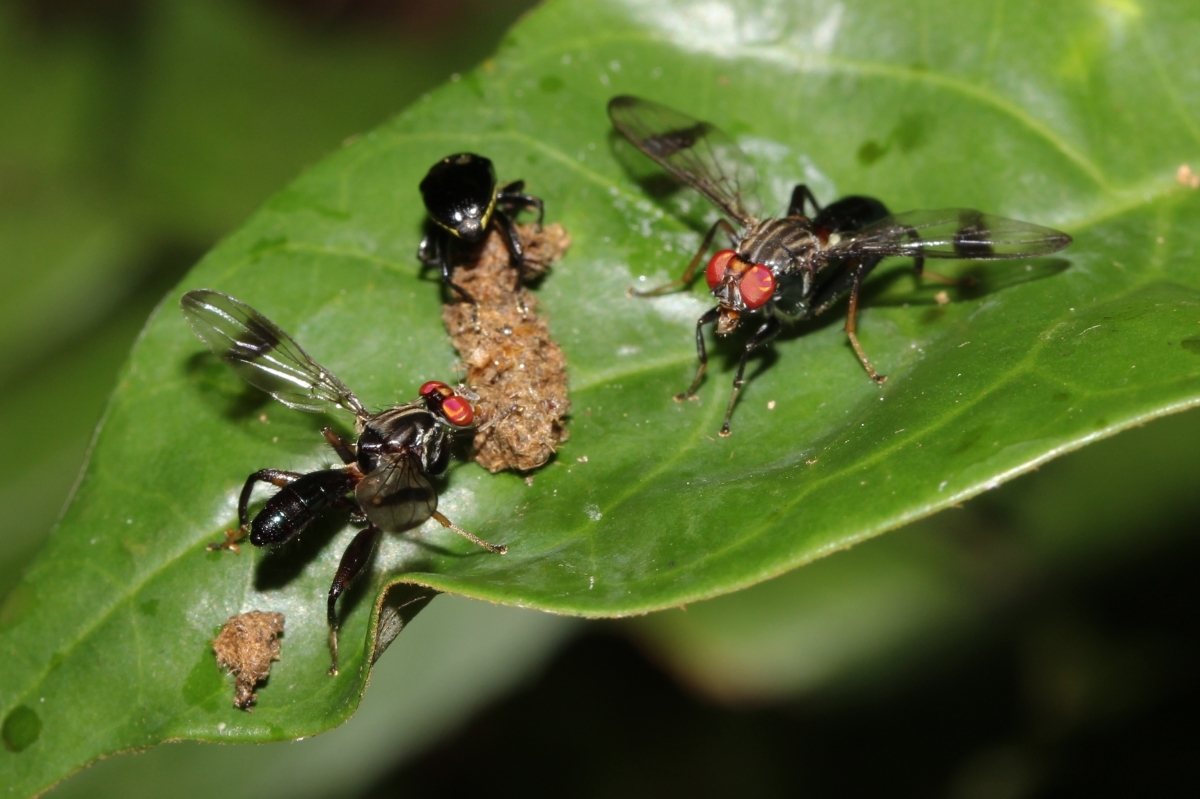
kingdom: Animalia
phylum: Arthropoda
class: Insecta
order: Diptera
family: Richardiidae
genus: Richardia
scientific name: Richardia
